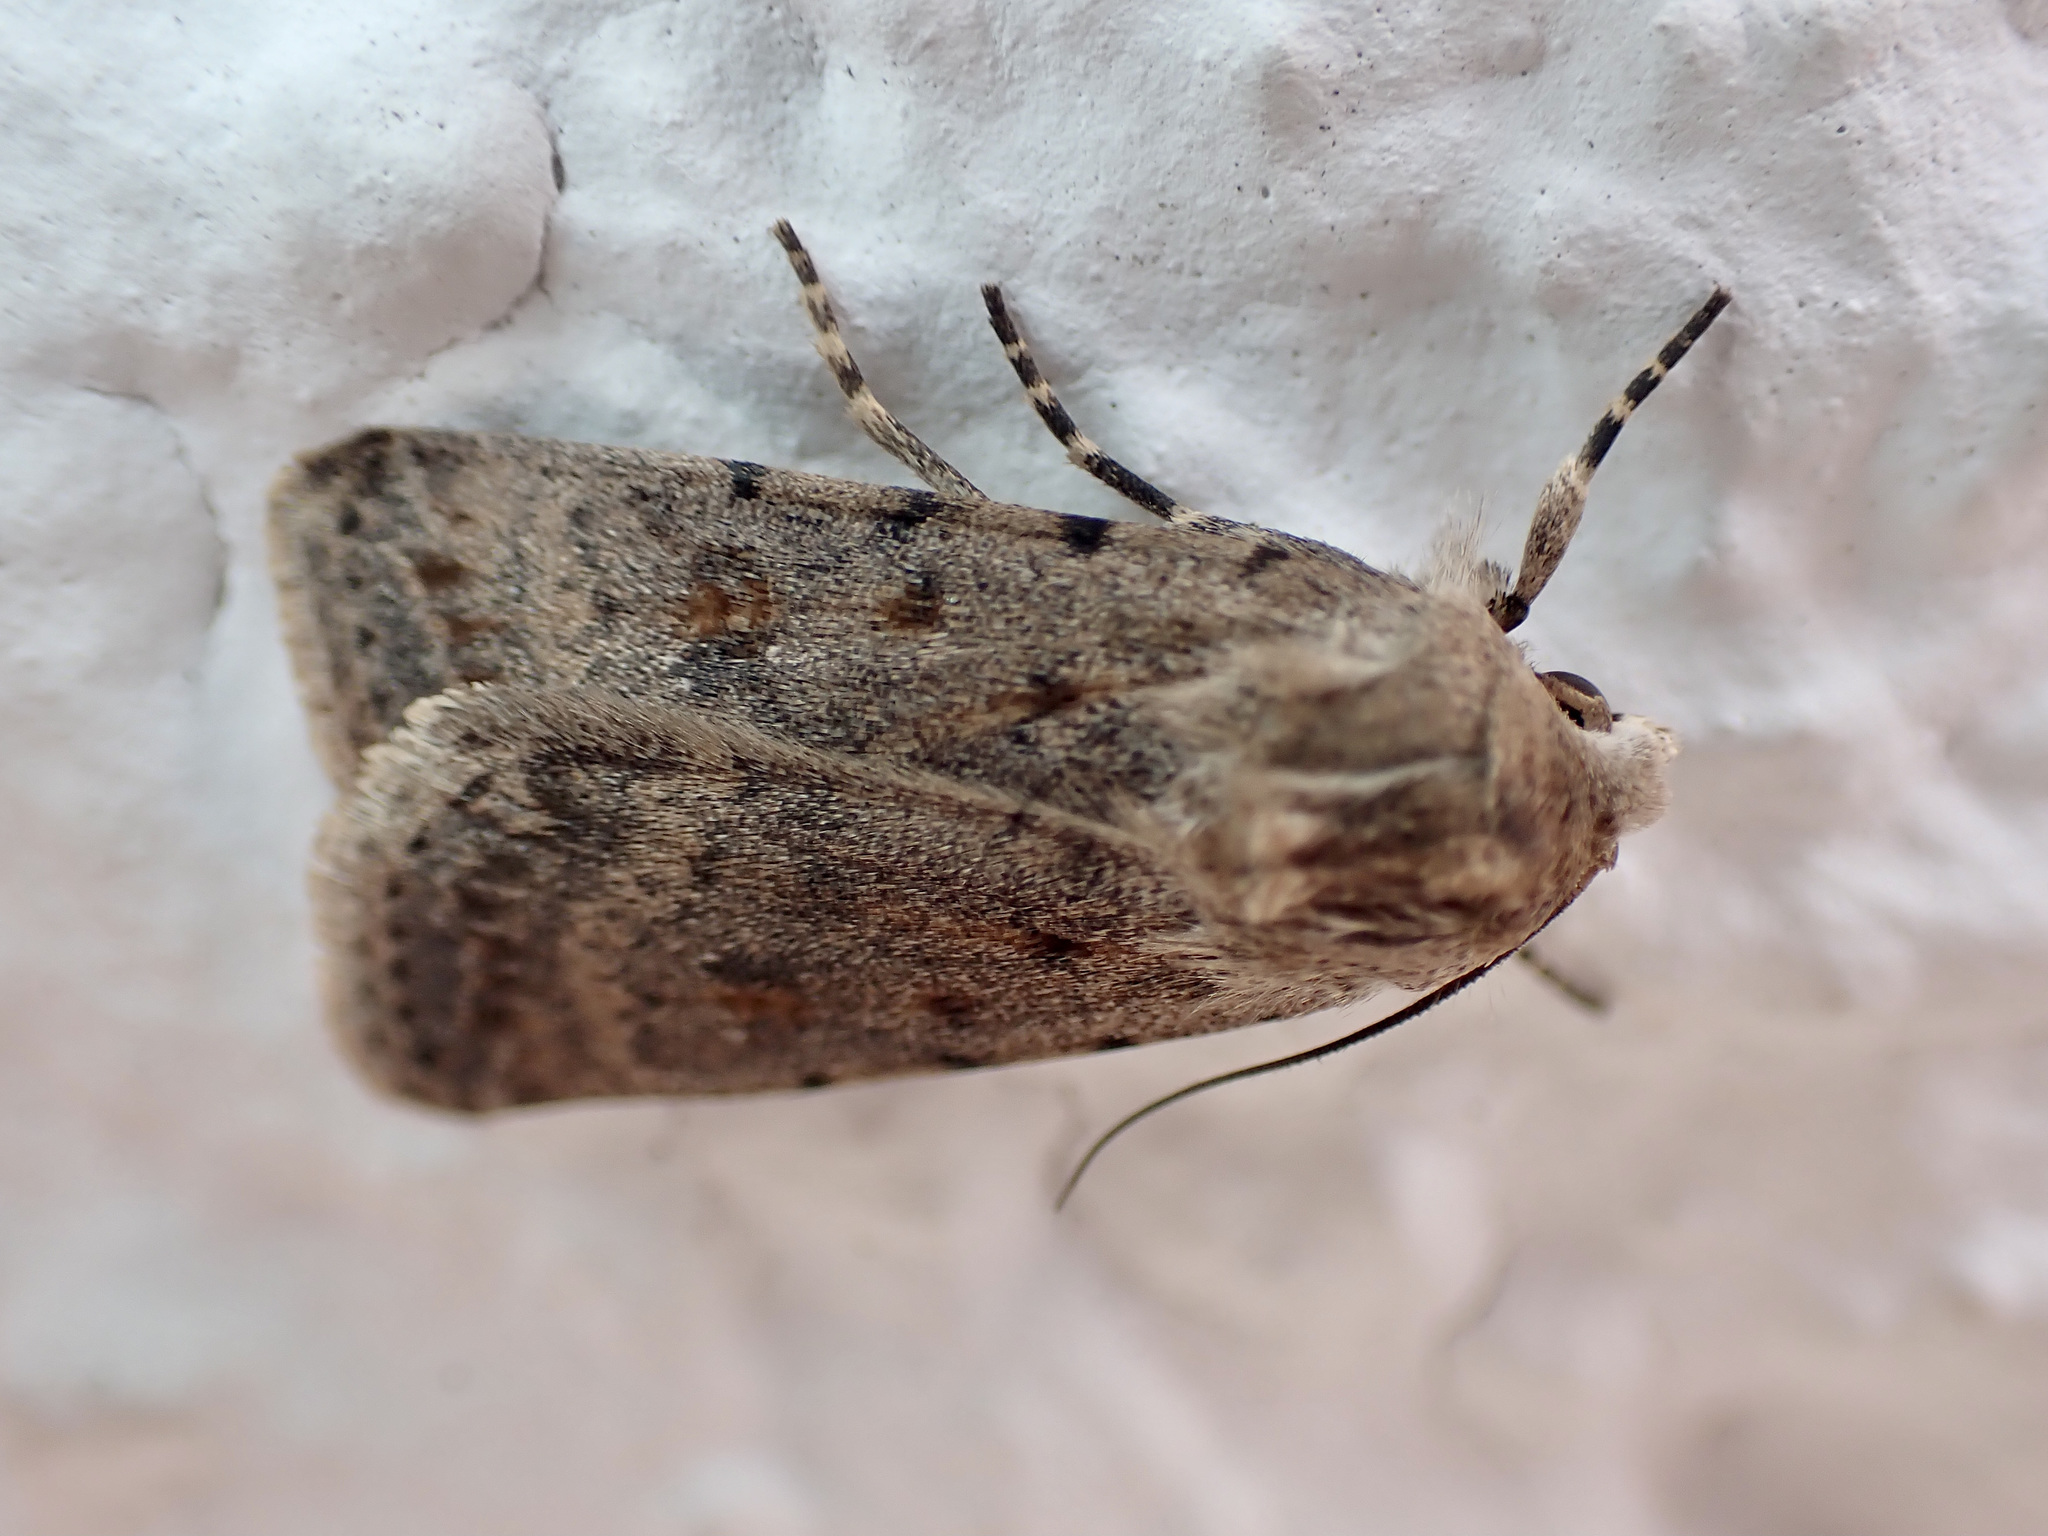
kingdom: Animalia
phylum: Arthropoda
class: Insecta
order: Lepidoptera
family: Noctuidae
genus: Caradrina
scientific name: Caradrina clavipalpis
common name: Pale mottled willow
